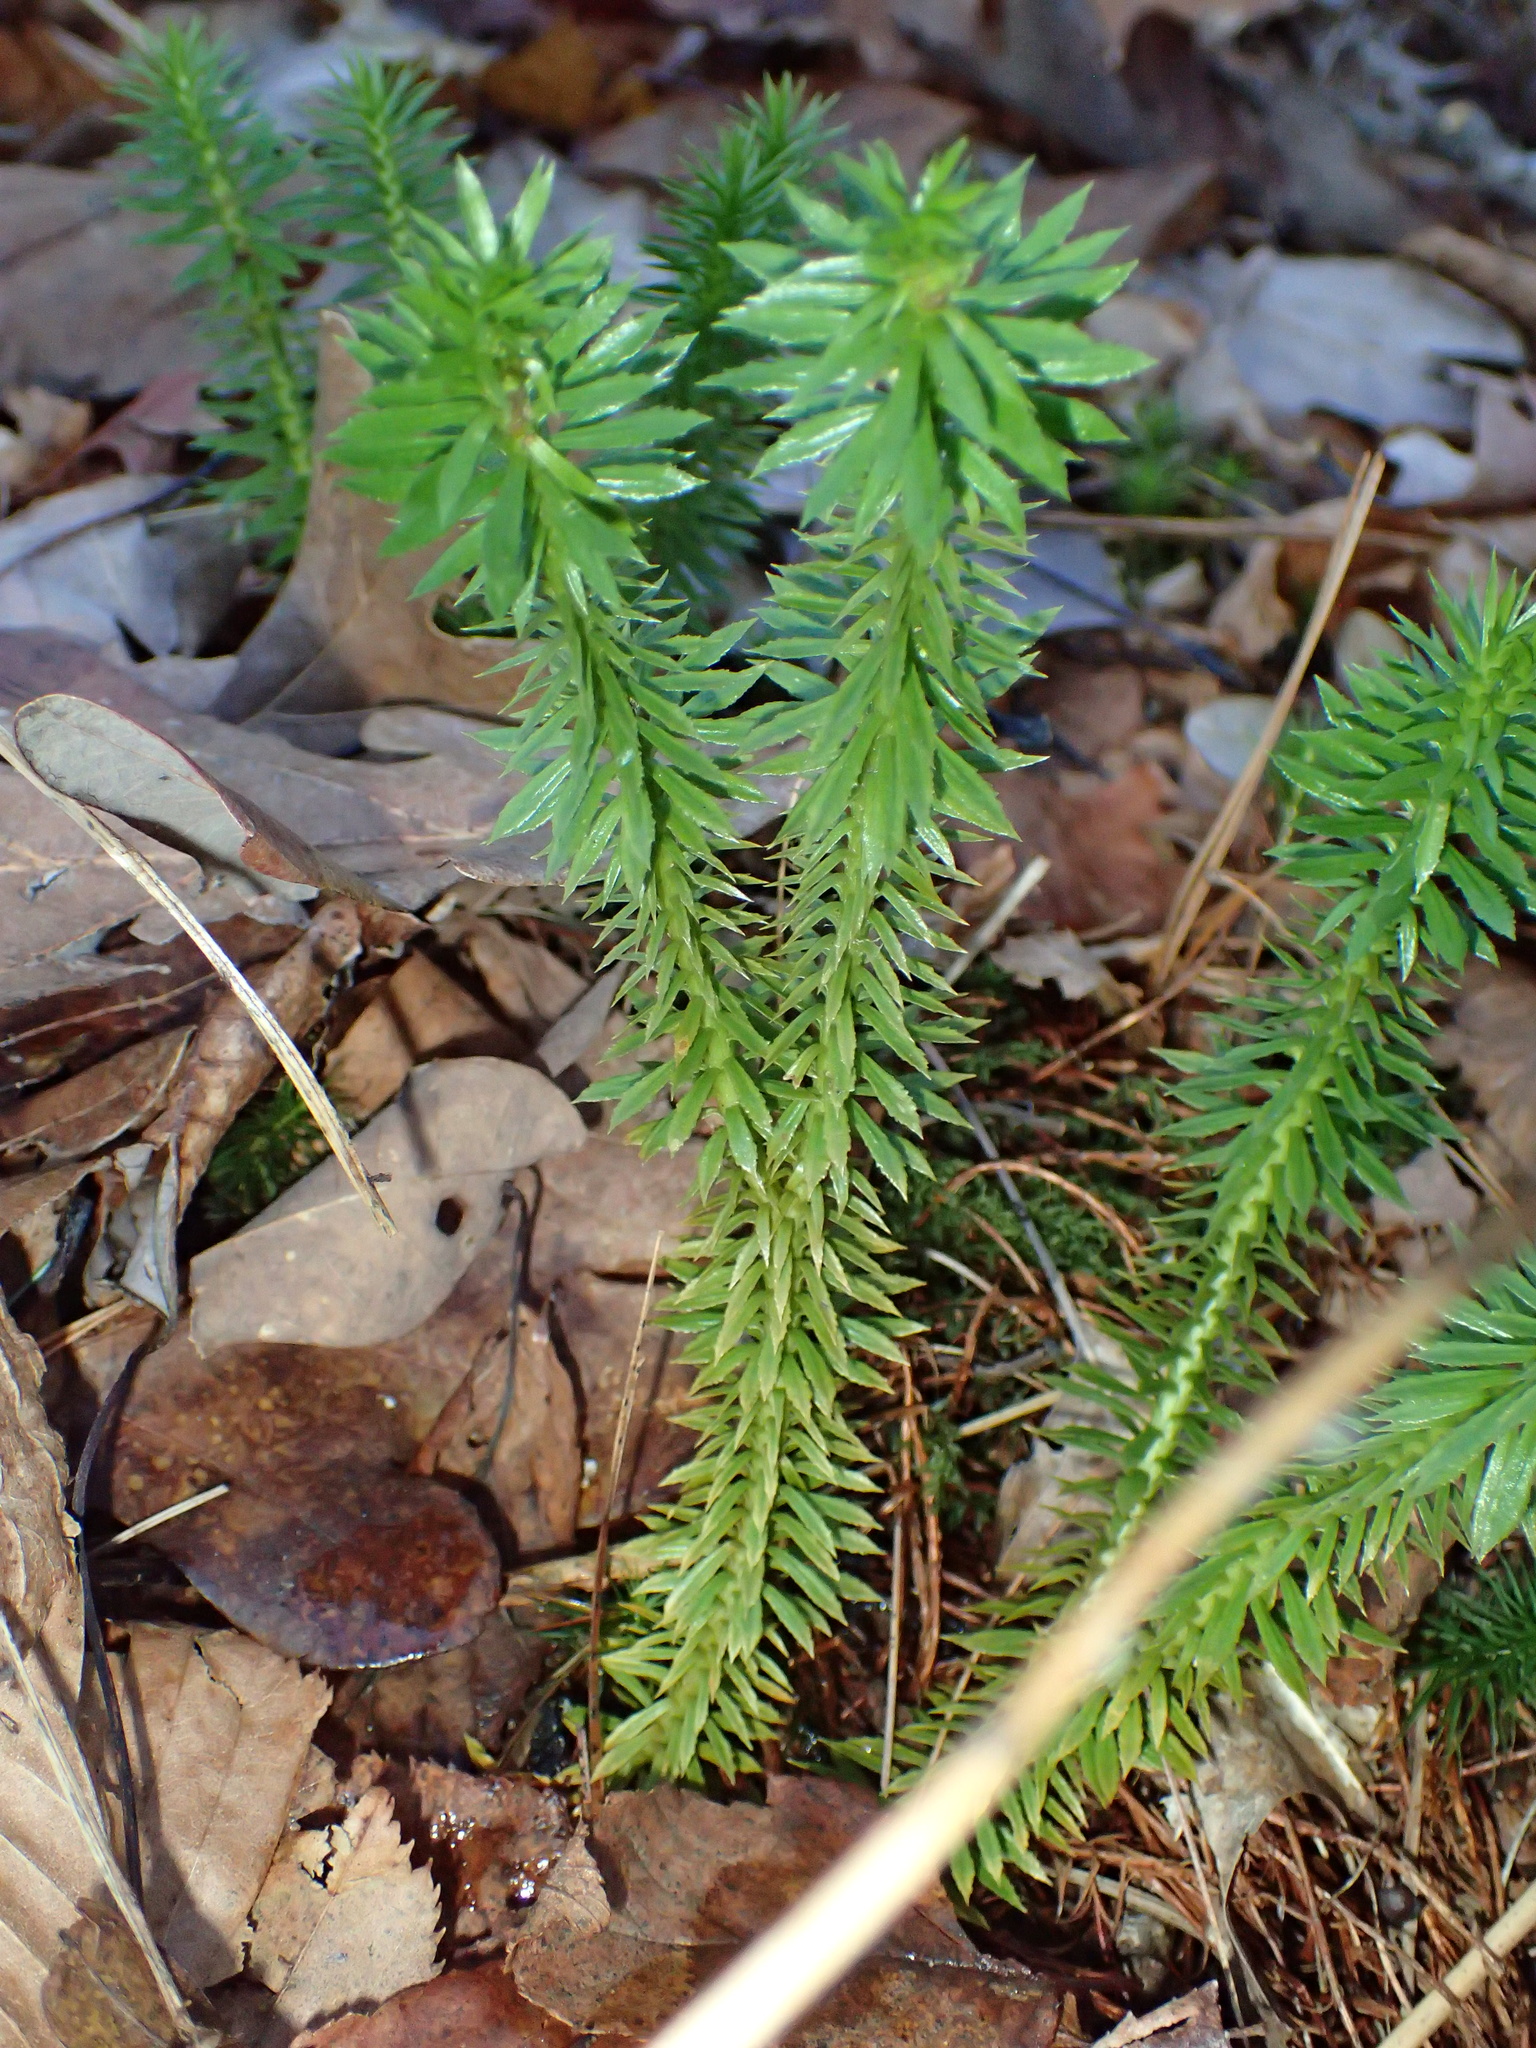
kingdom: Plantae
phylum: Tracheophyta
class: Lycopodiopsida
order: Lycopodiales
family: Lycopodiaceae
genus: Huperzia
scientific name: Huperzia lucidula
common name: Shining clubmoss
